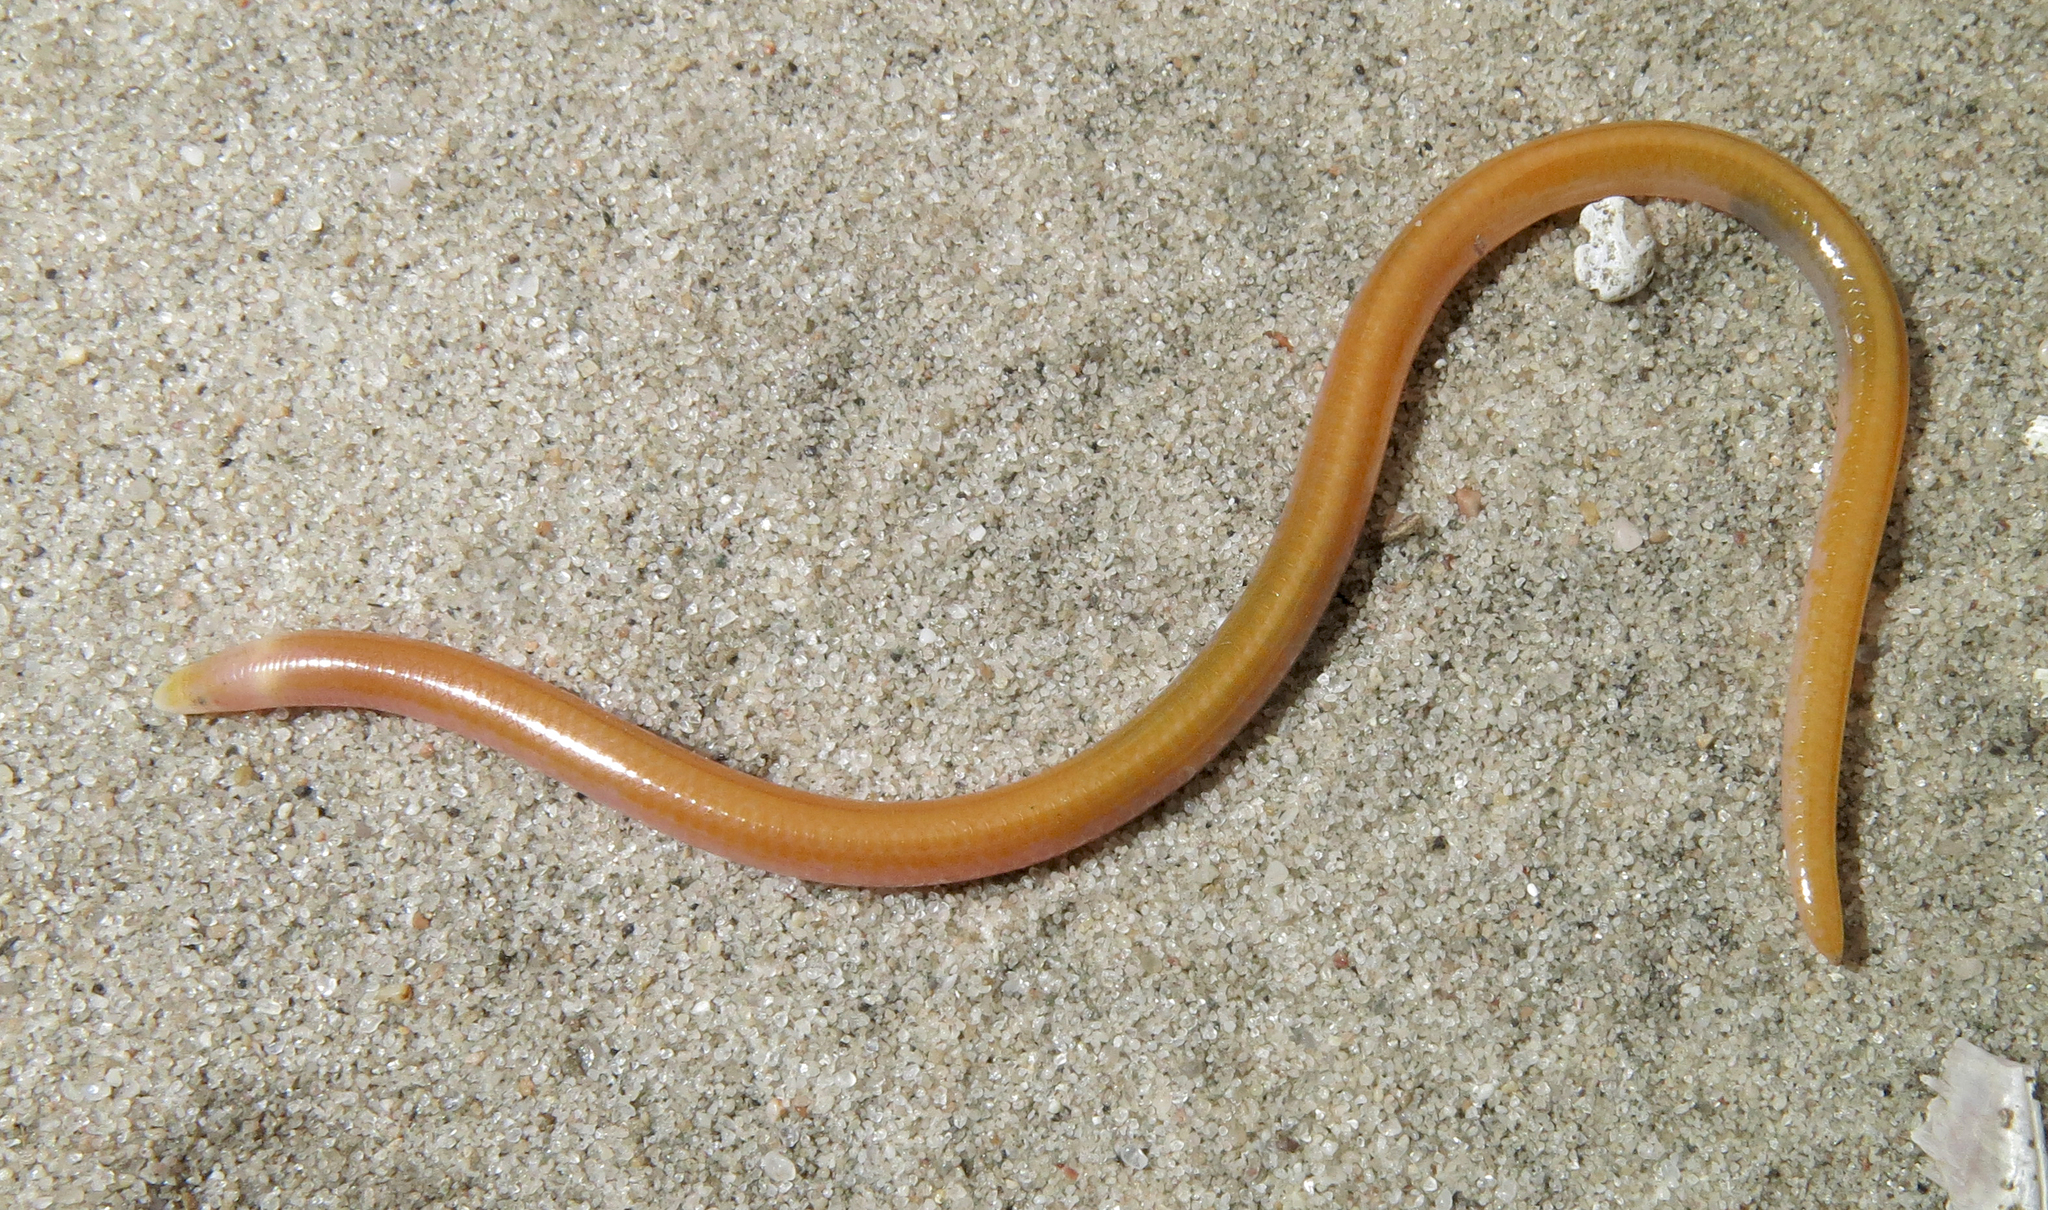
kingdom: Animalia
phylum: Chordata
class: Squamata
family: Scincidae
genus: Typhlosaurus
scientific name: Typhlosaurus lomiae
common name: Lomi's blind legless skink
